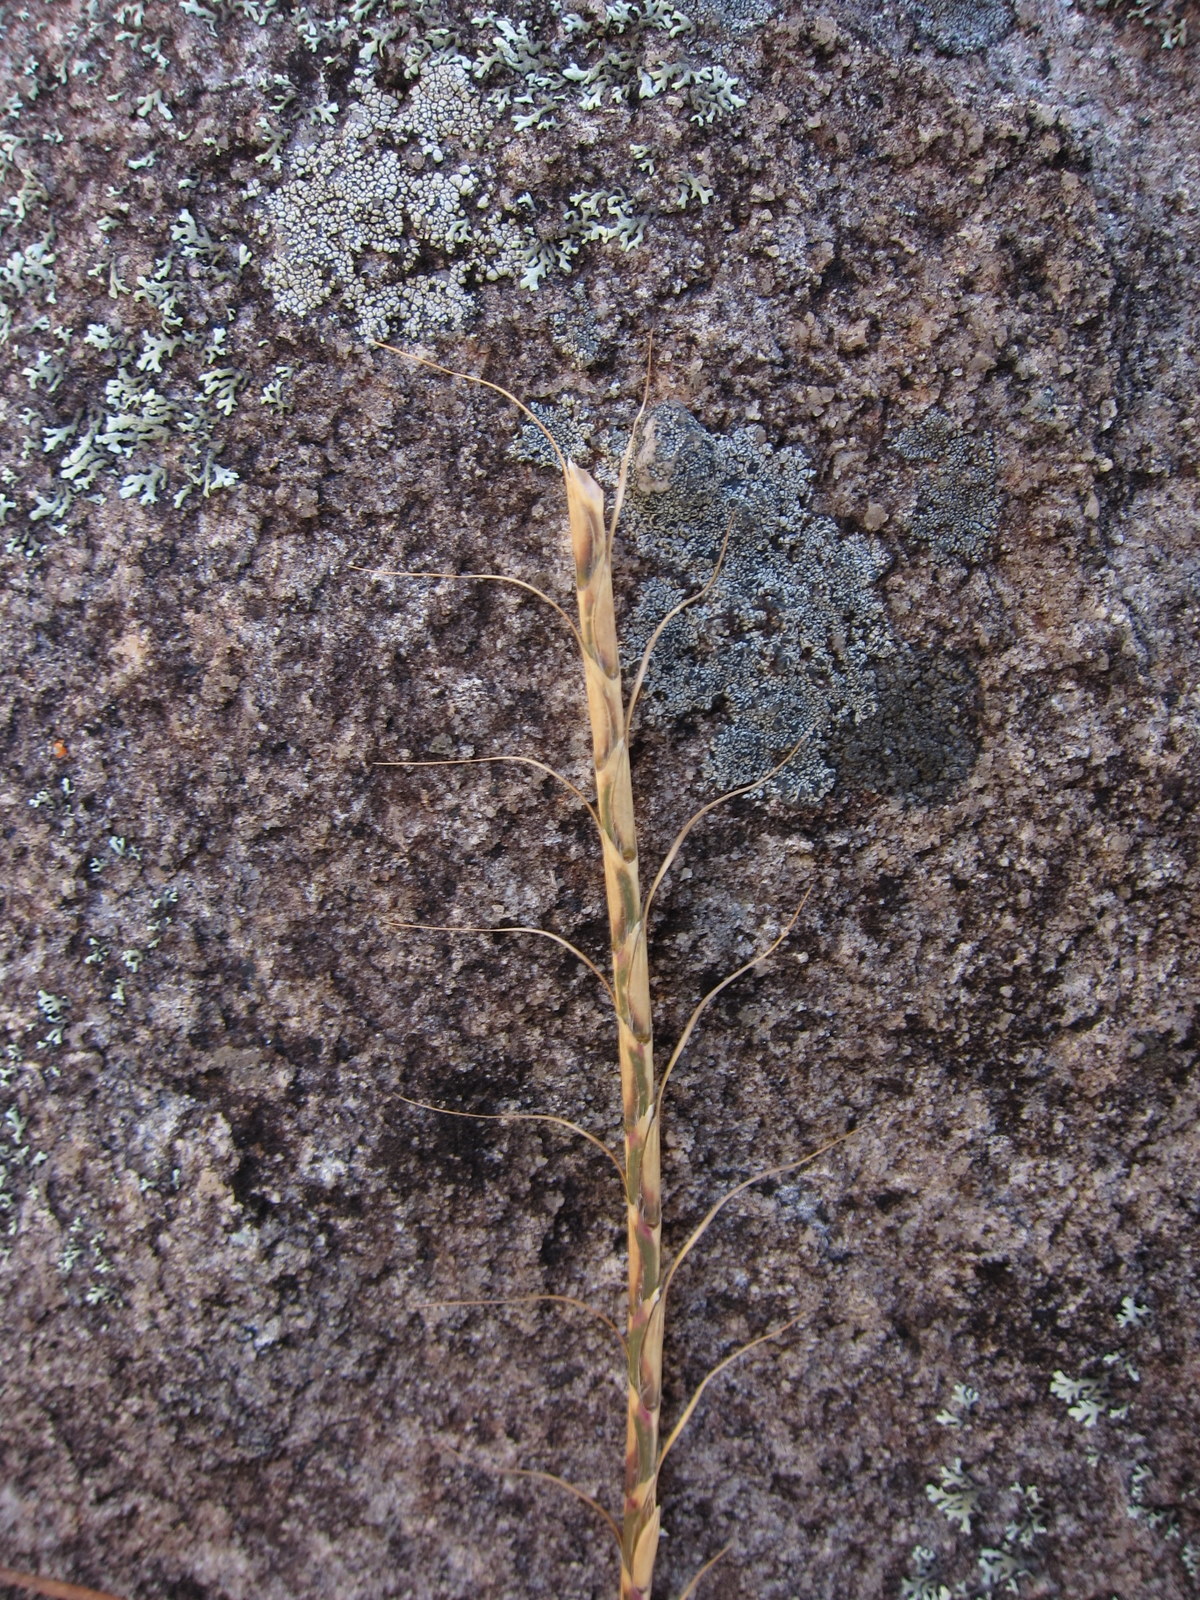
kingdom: Plantae
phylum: Tracheophyta
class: Liliopsida
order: Poales
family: Poaceae
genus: Urelytrum
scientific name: Urelytrum agropyroides
